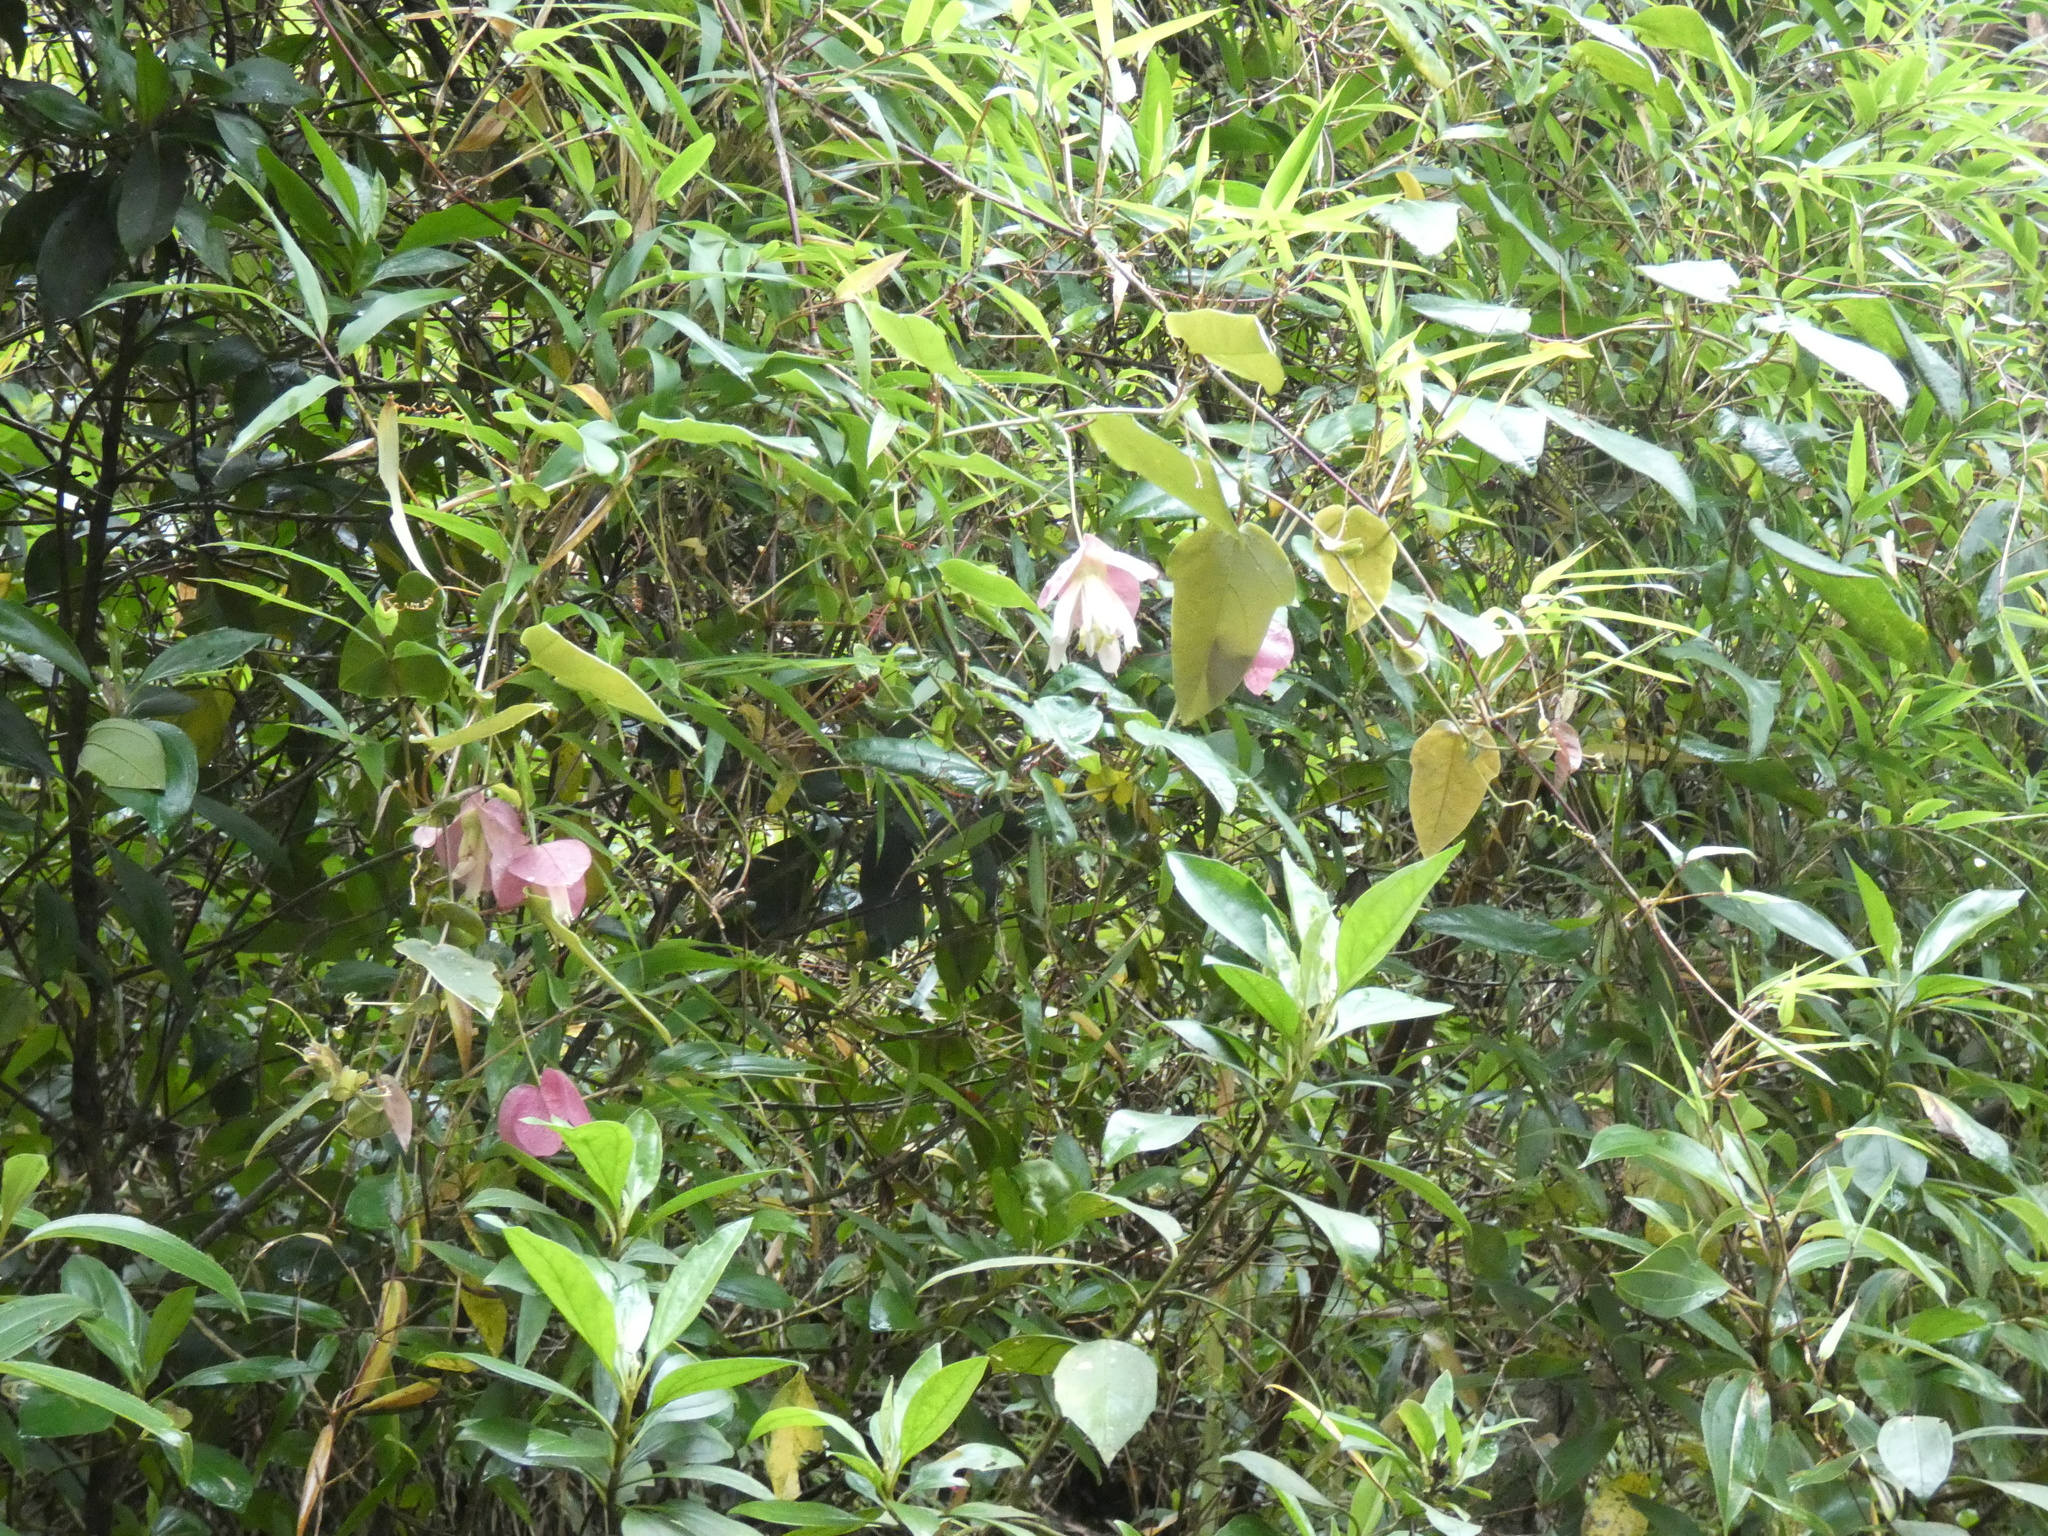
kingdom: Plantae
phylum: Tracheophyta
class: Magnoliopsida
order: Malpighiales
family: Passifloraceae
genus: Passiflora
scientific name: Passiflora catharinensis
